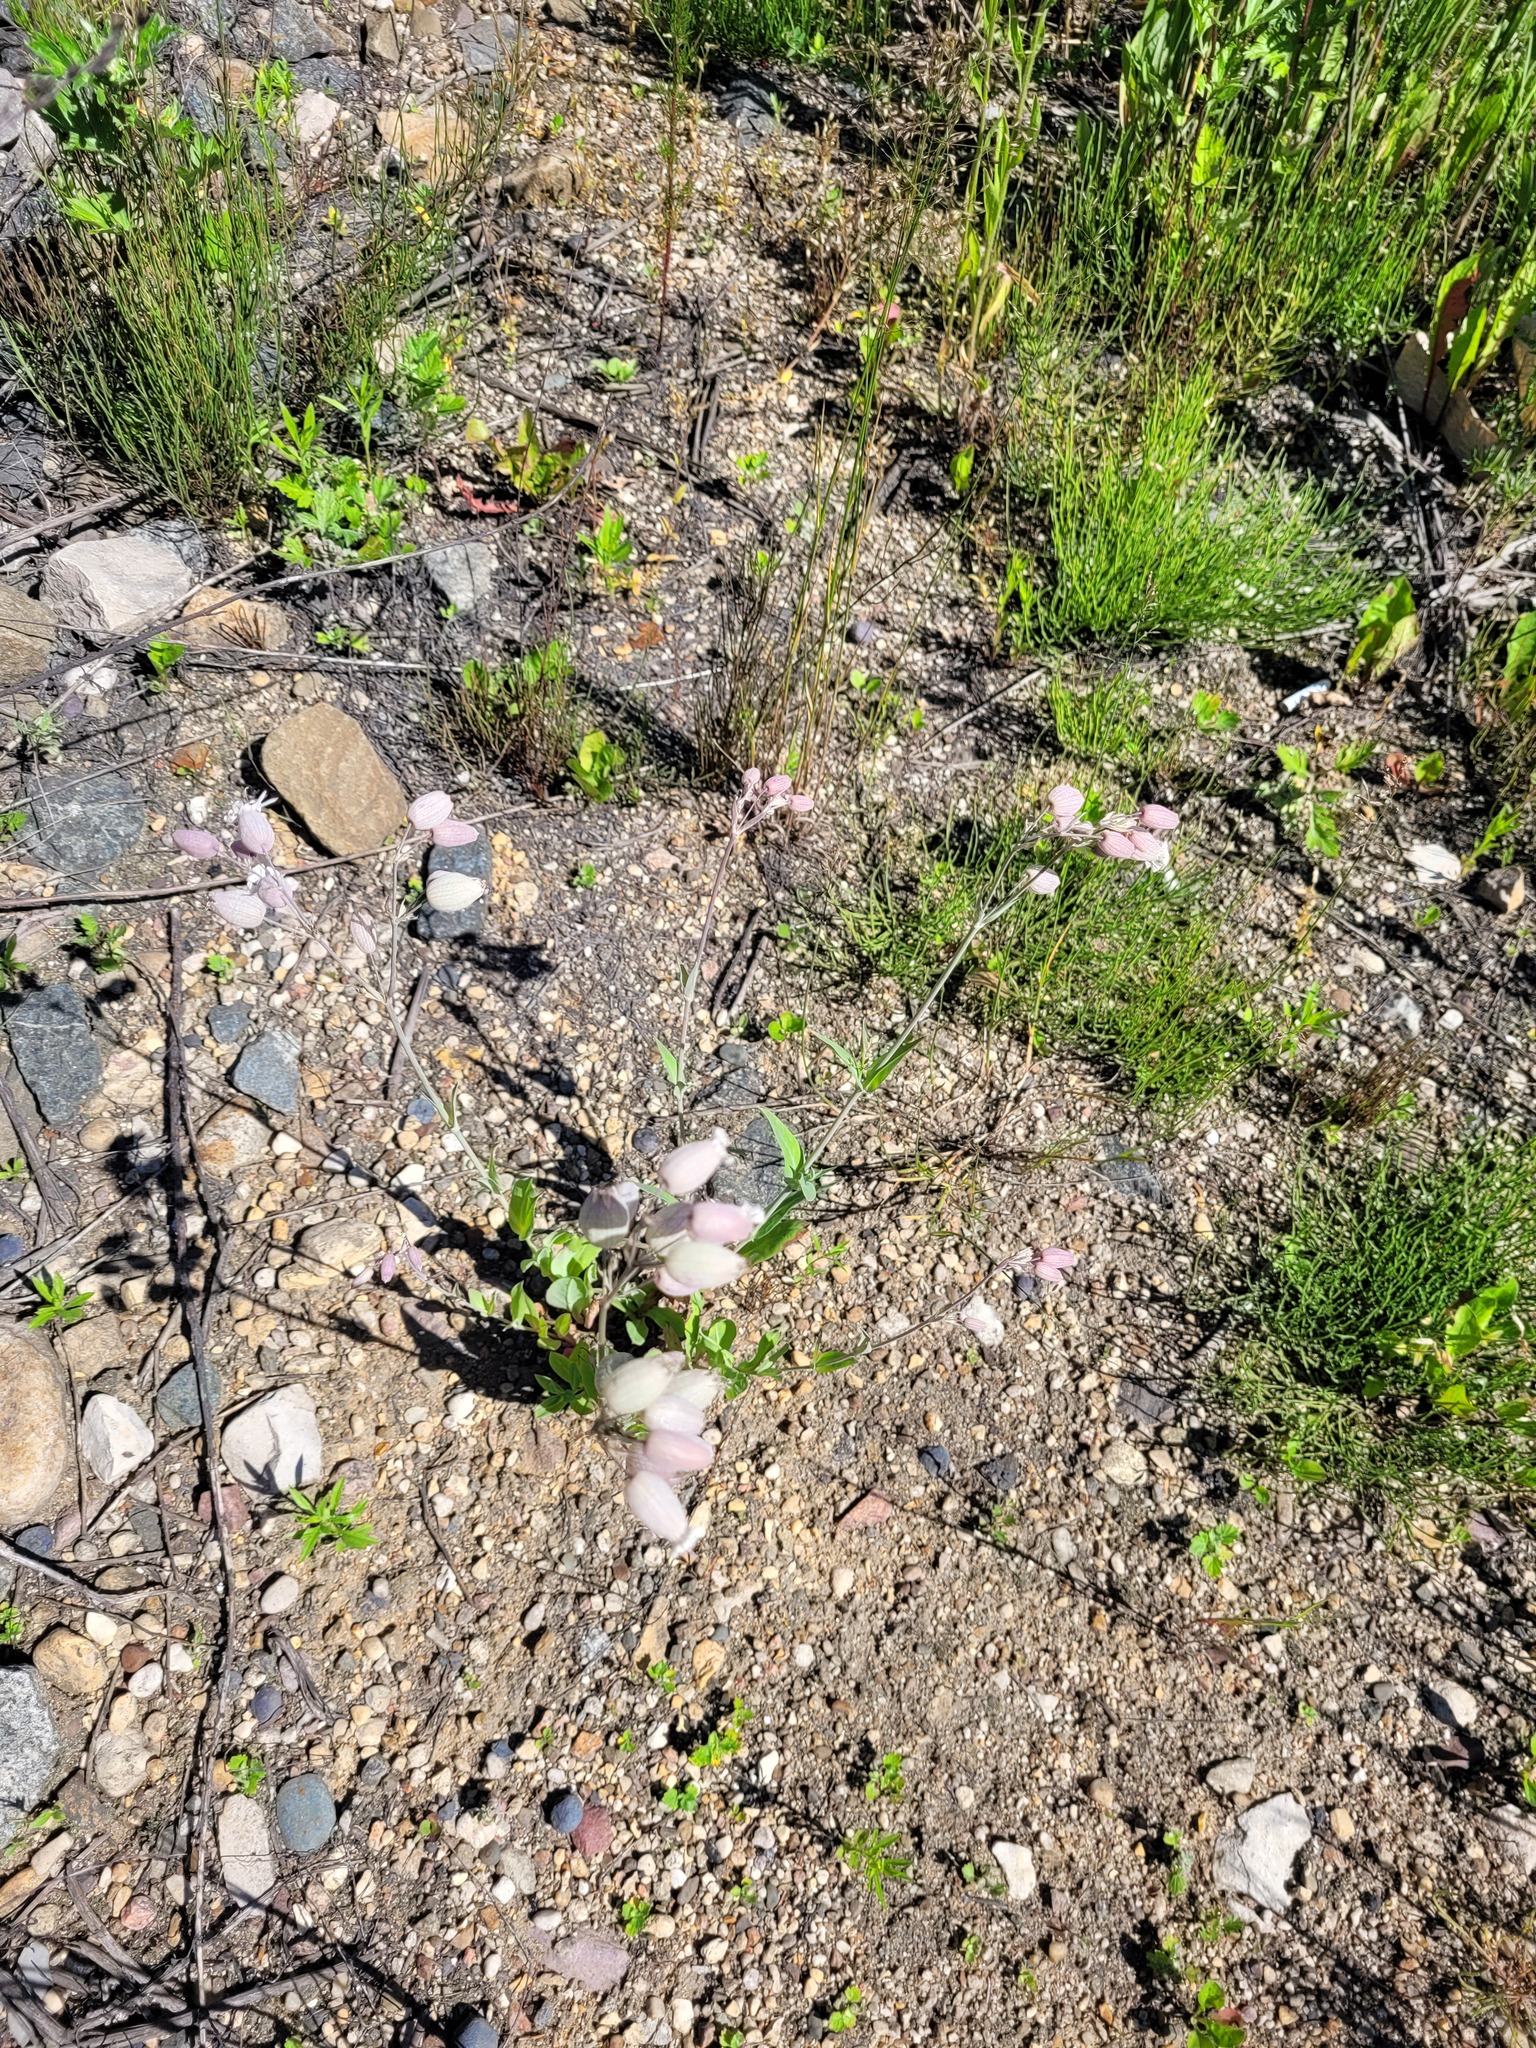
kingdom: Plantae
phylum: Tracheophyta
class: Magnoliopsida
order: Caryophyllales
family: Caryophyllaceae
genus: Silene
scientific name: Silene vulgaris
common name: Bladder campion
